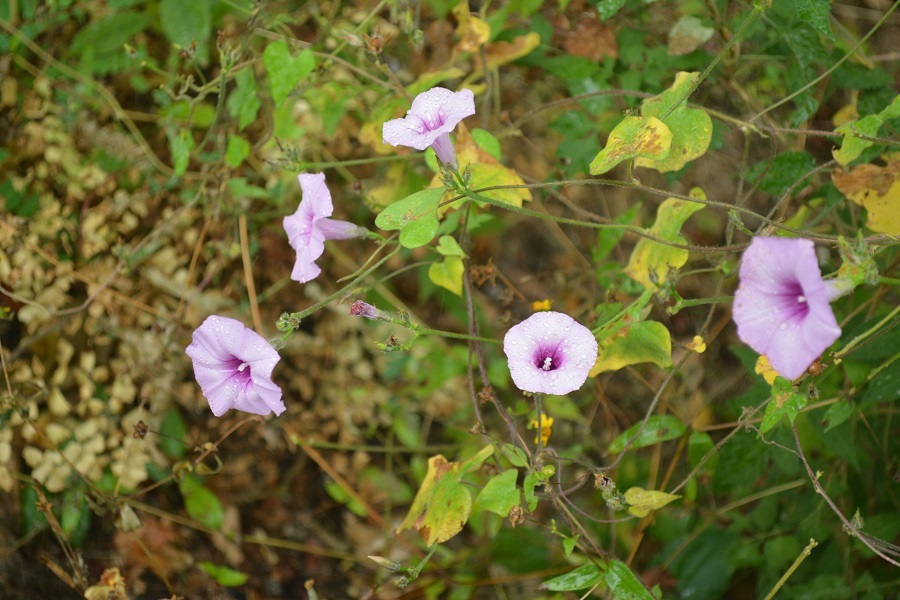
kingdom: Plantae
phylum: Tracheophyta
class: Magnoliopsida
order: Solanales
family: Convolvulaceae
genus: Ipomoea
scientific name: Ipomoea trifida
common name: Cotton morningglory
